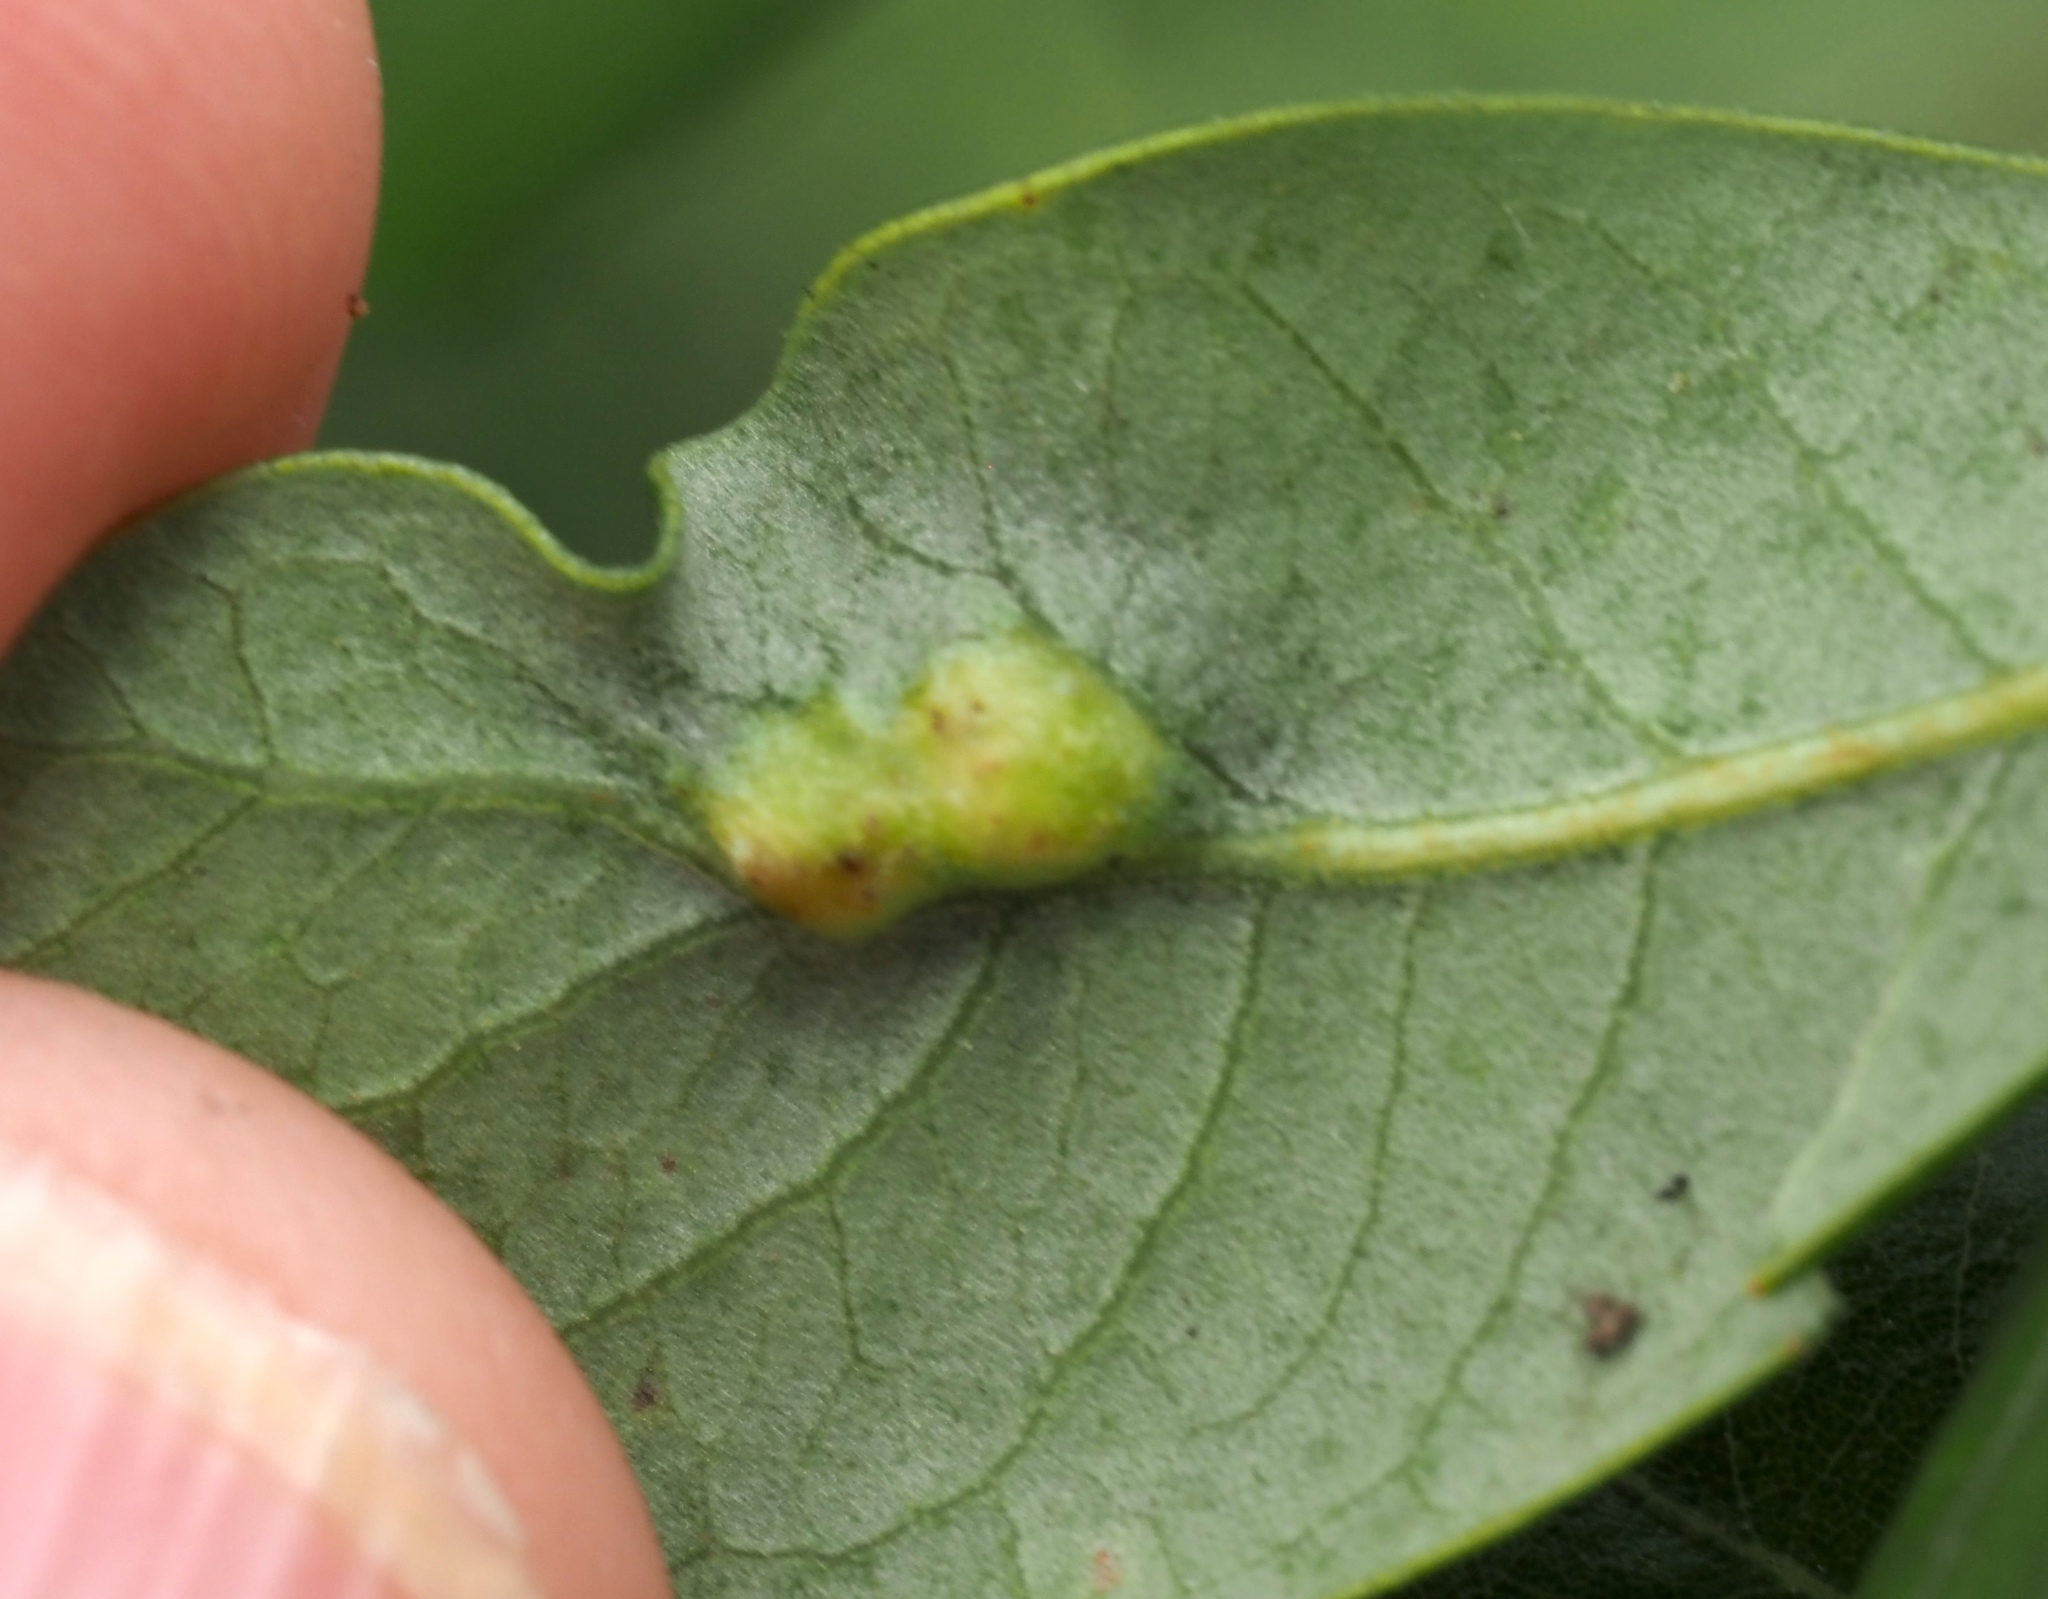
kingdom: Animalia
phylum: Arthropoda
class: Insecta
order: Hymenoptera
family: Cynipidae
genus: Neuroterus
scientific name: Neuroterus
